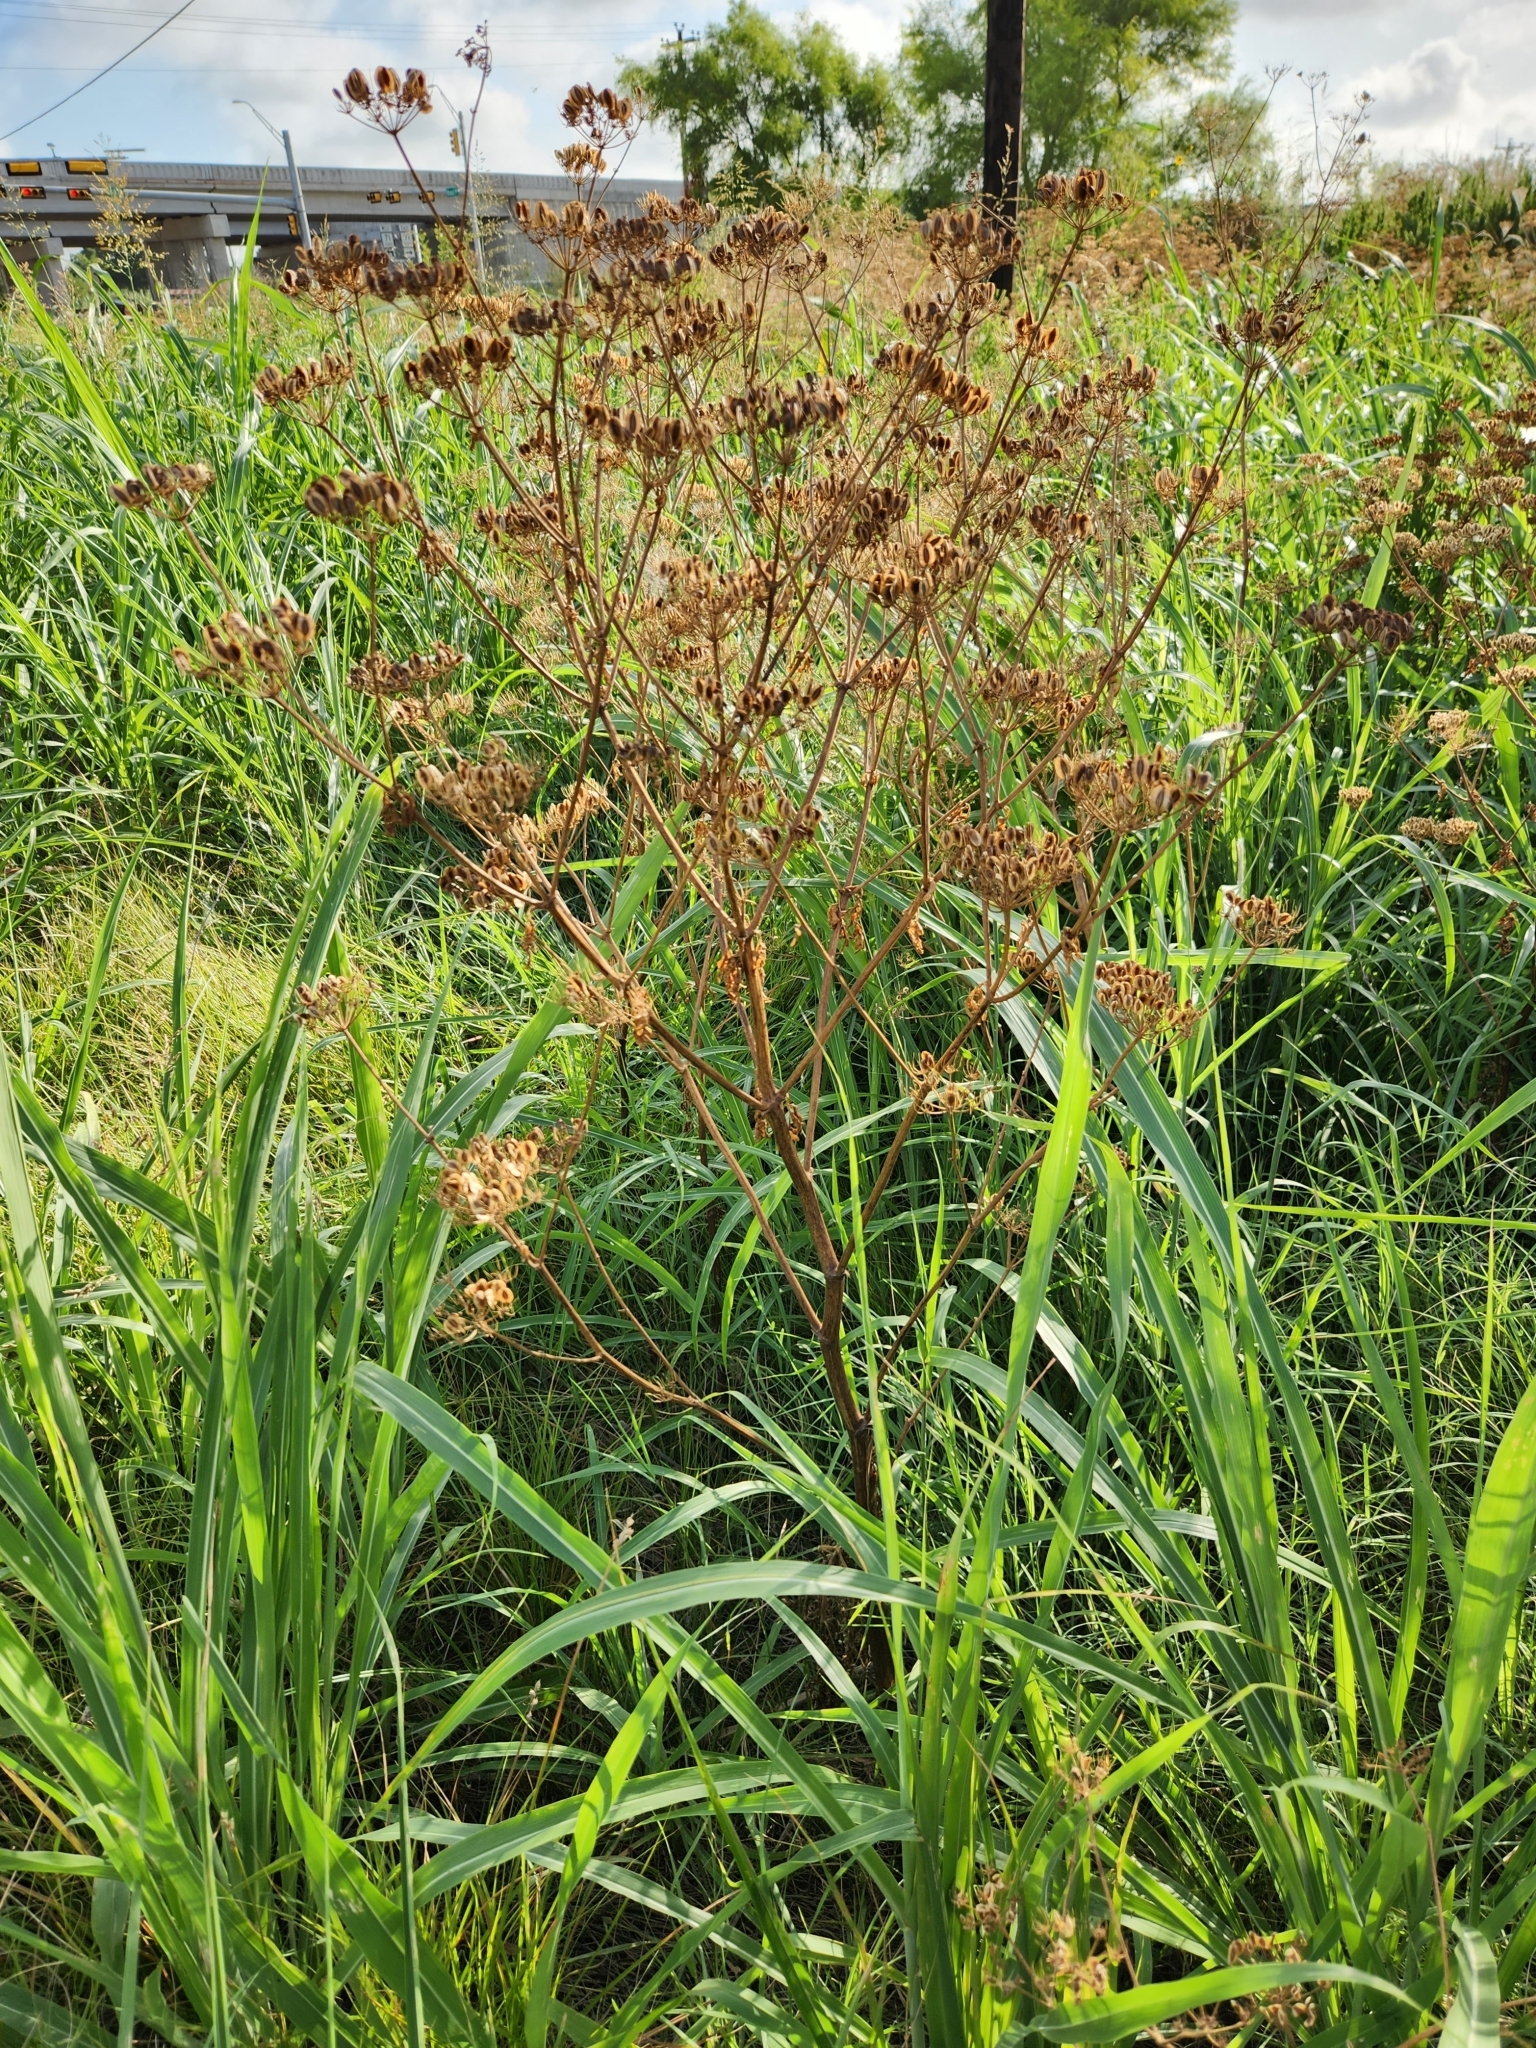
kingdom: Plantae
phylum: Tracheophyta
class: Magnoliopsida
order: Apiales
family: Apiaceae
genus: Polytaenia
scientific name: Polytaenia texana
